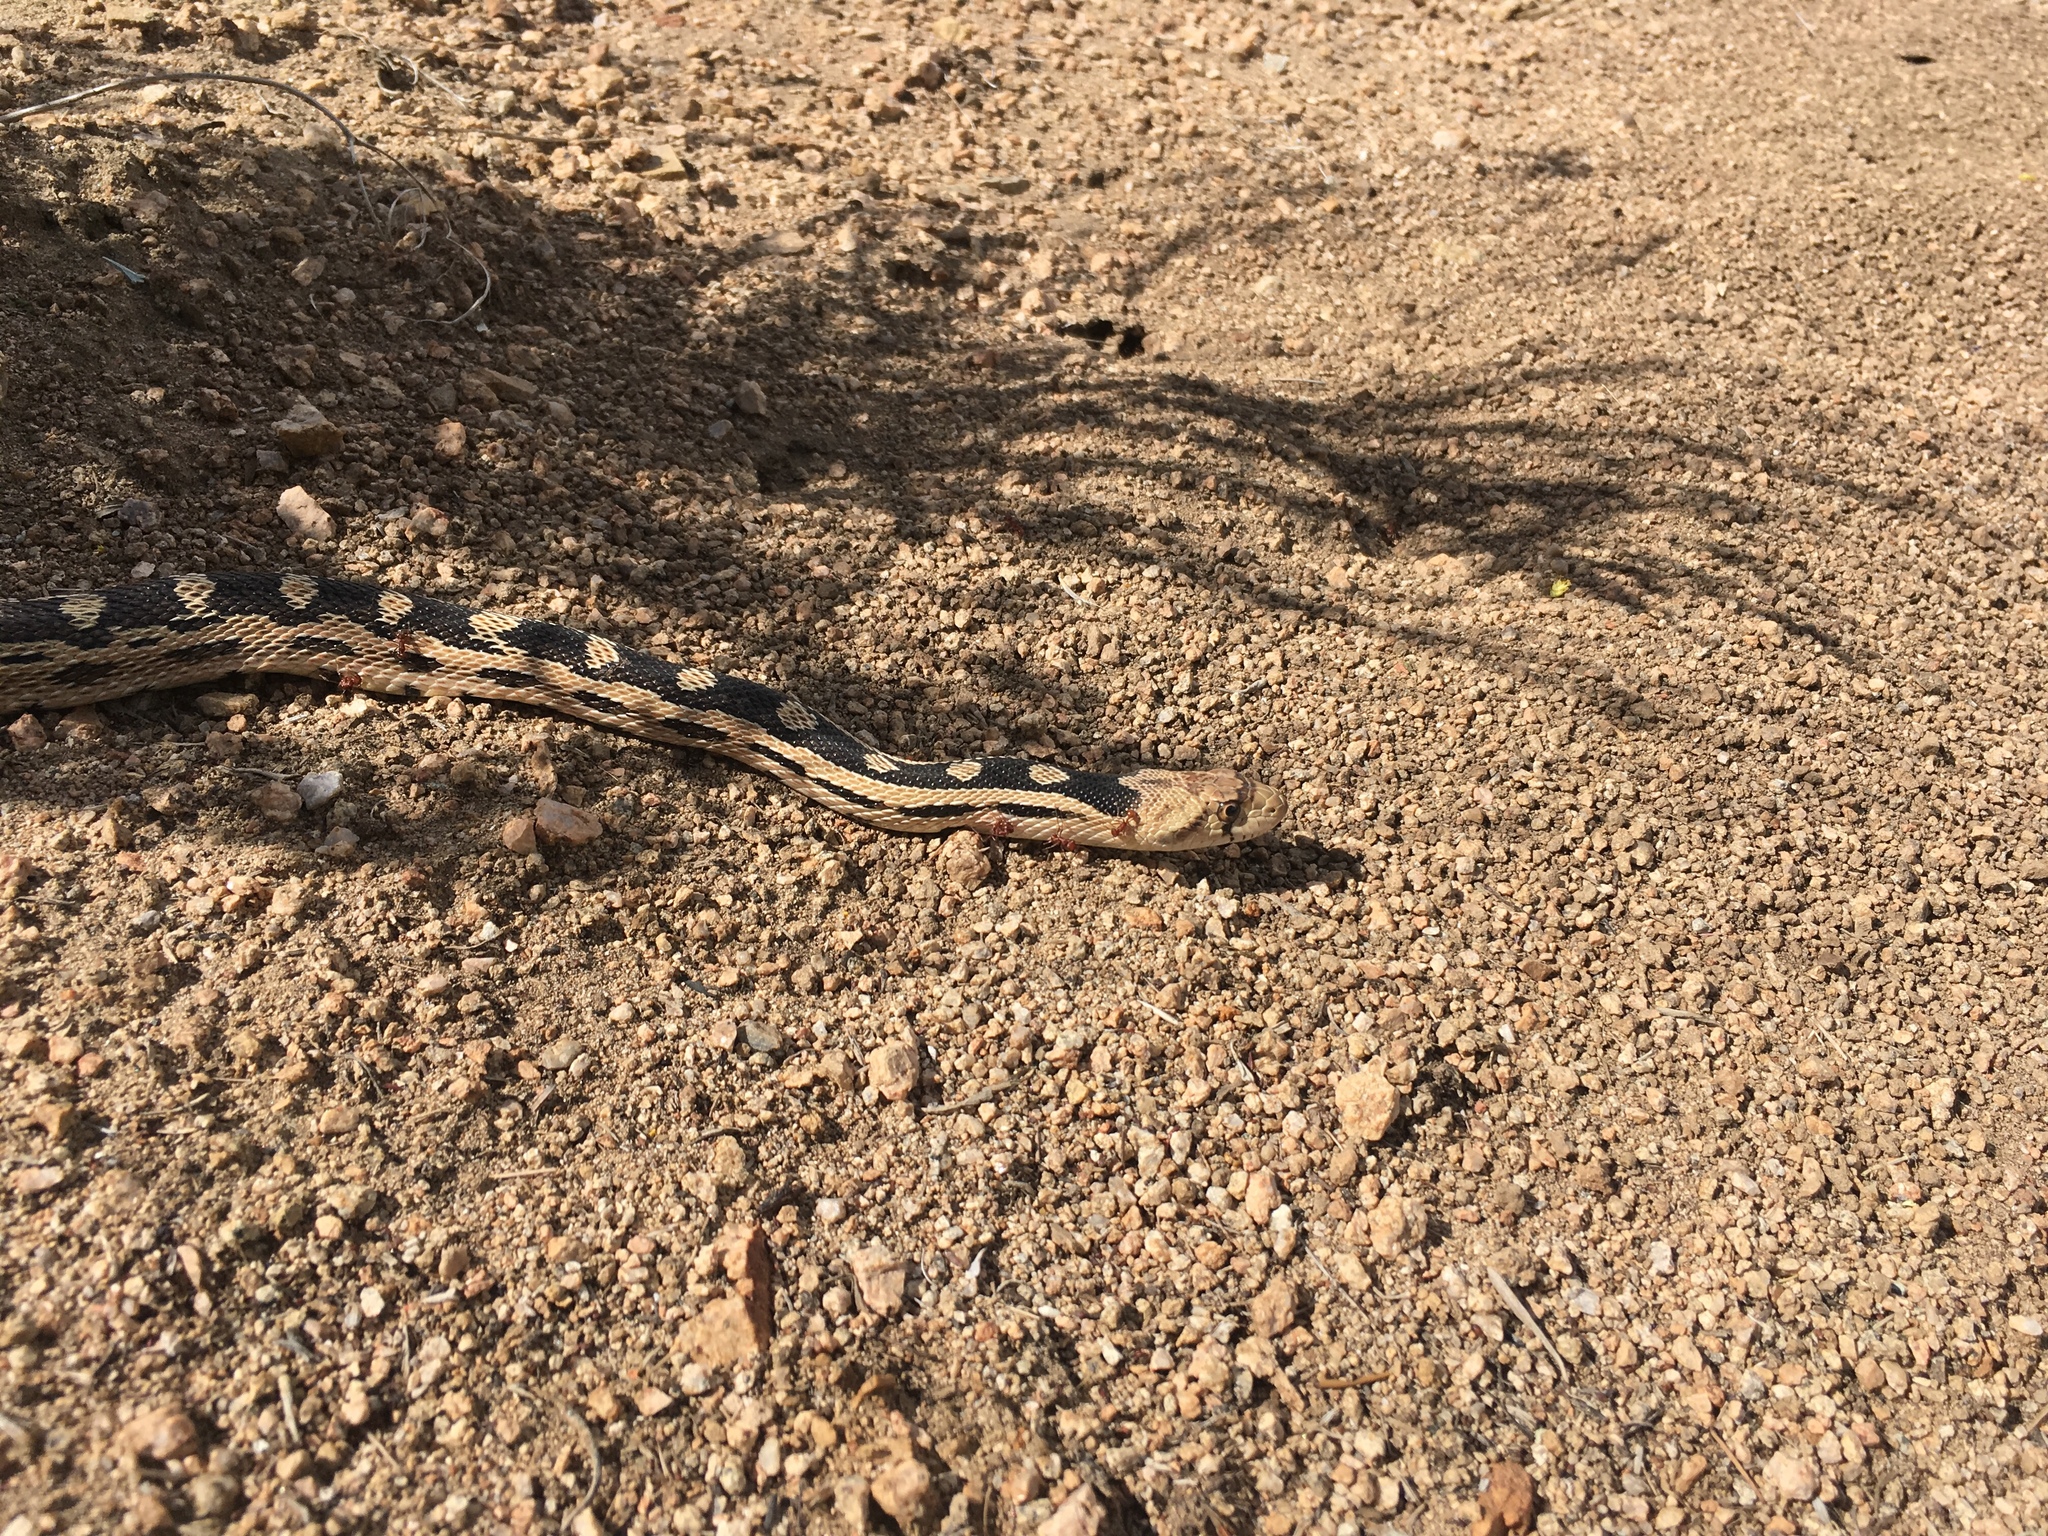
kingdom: Animalia
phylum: Chordata
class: Squamata
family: Colubridae
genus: Pituophis
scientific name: Pituophis catenifer
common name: Gopher snake
